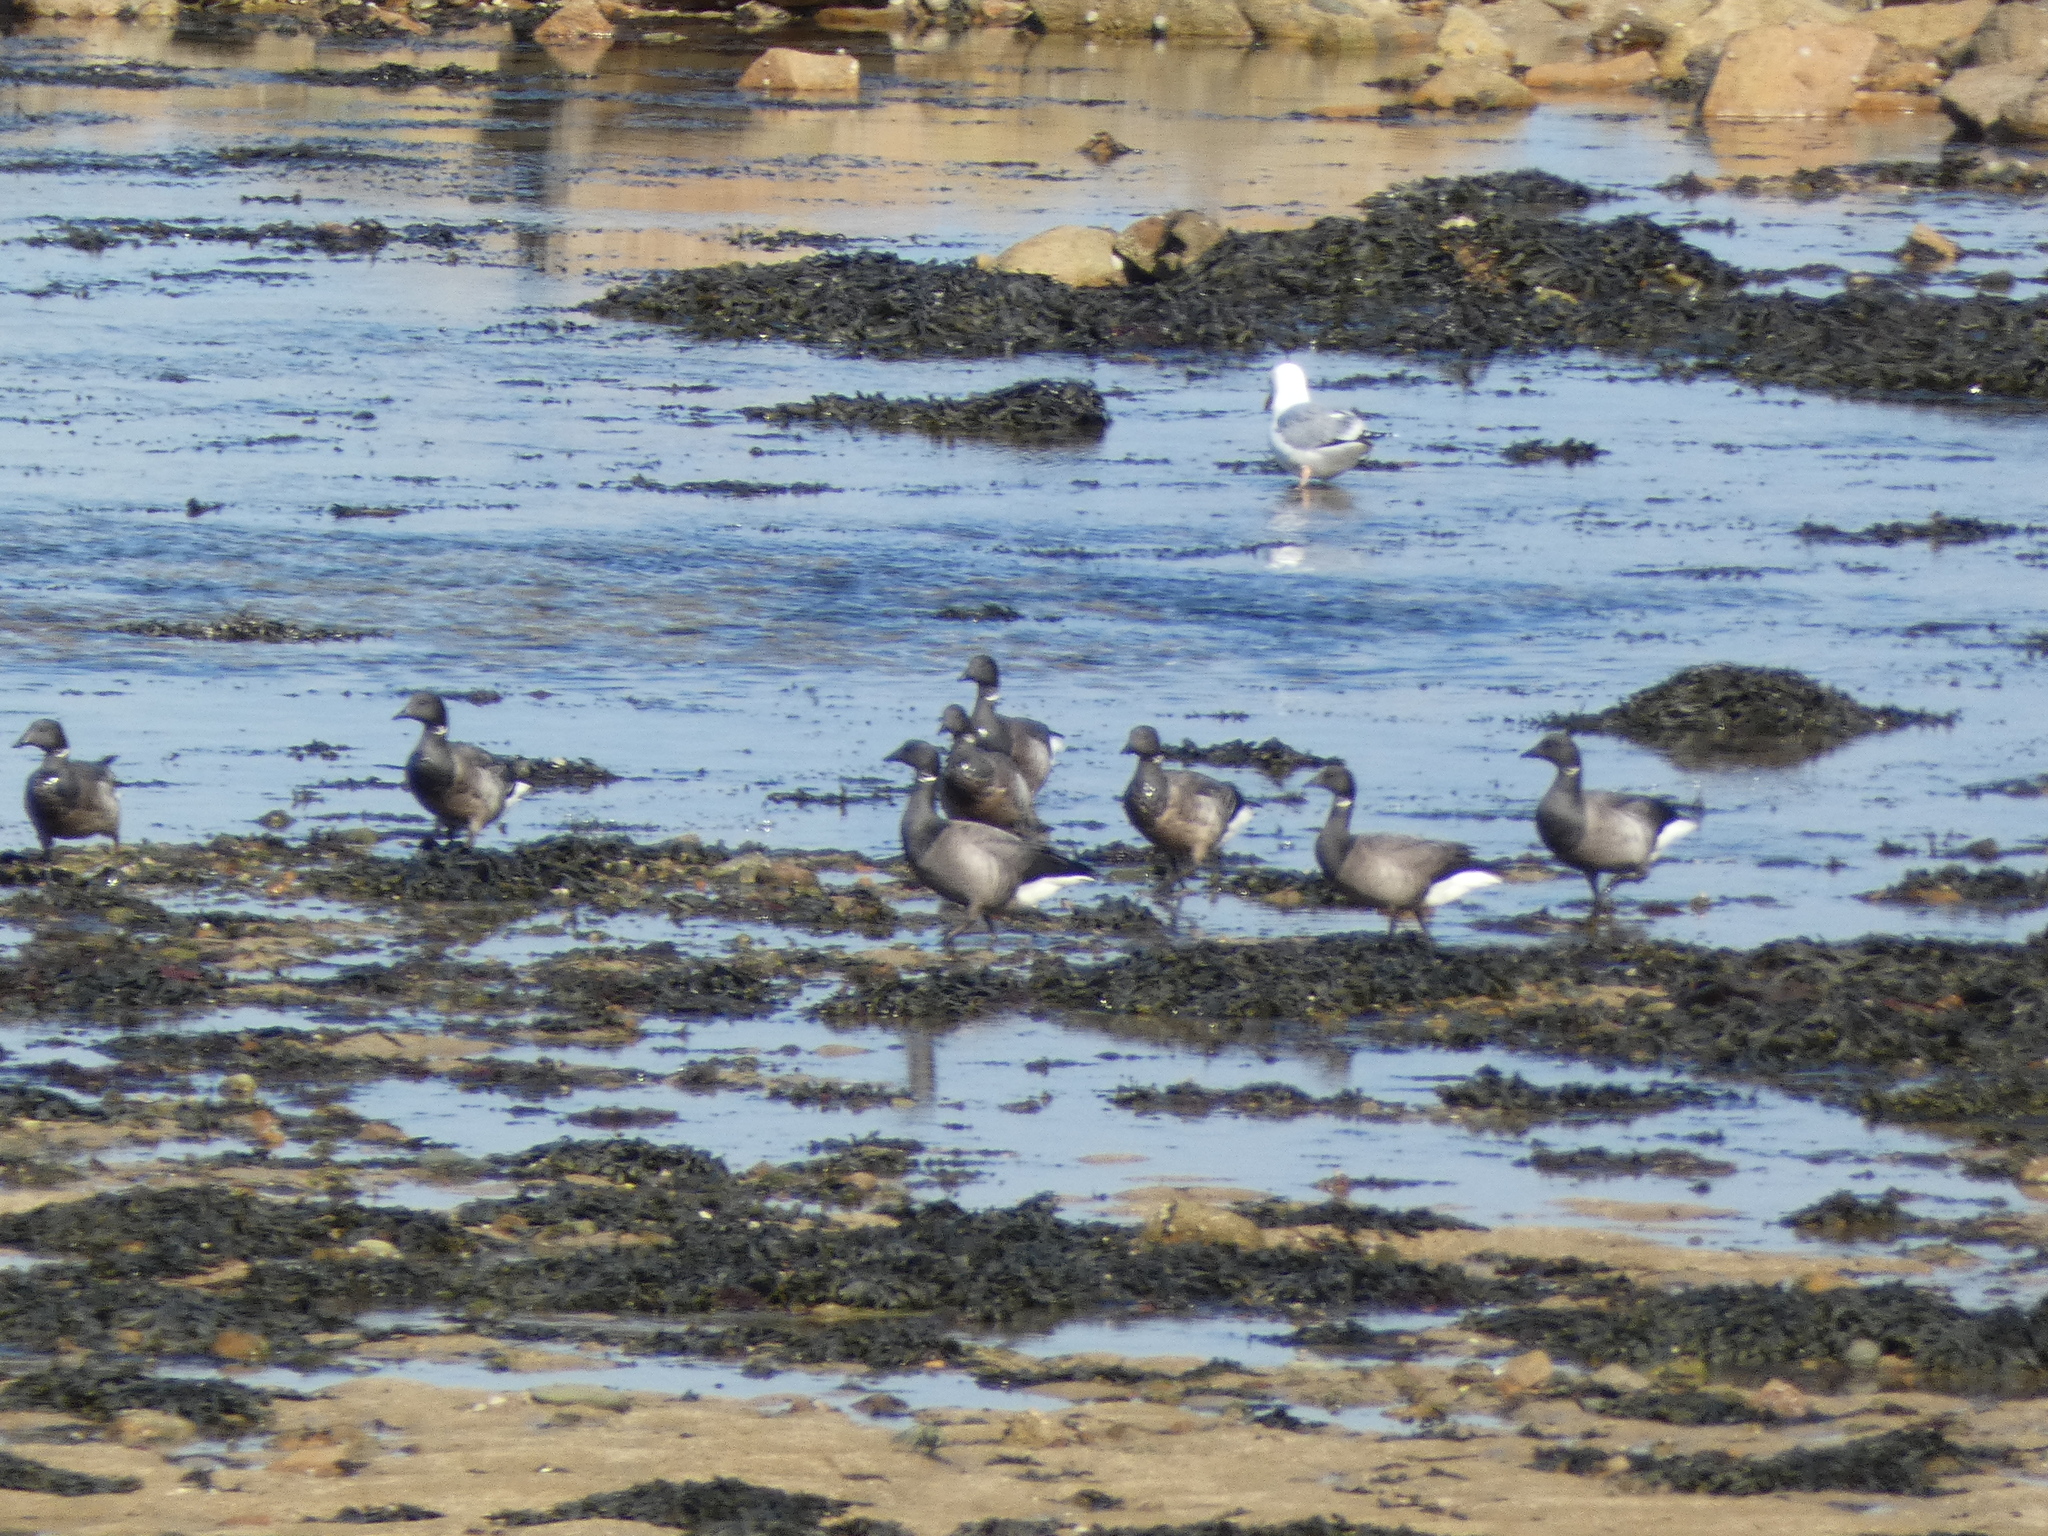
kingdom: Animalia
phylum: Chordata
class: Aves
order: Anseriformes
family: Anatidae
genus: Branta
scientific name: Branta bernicla
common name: Brant goose
